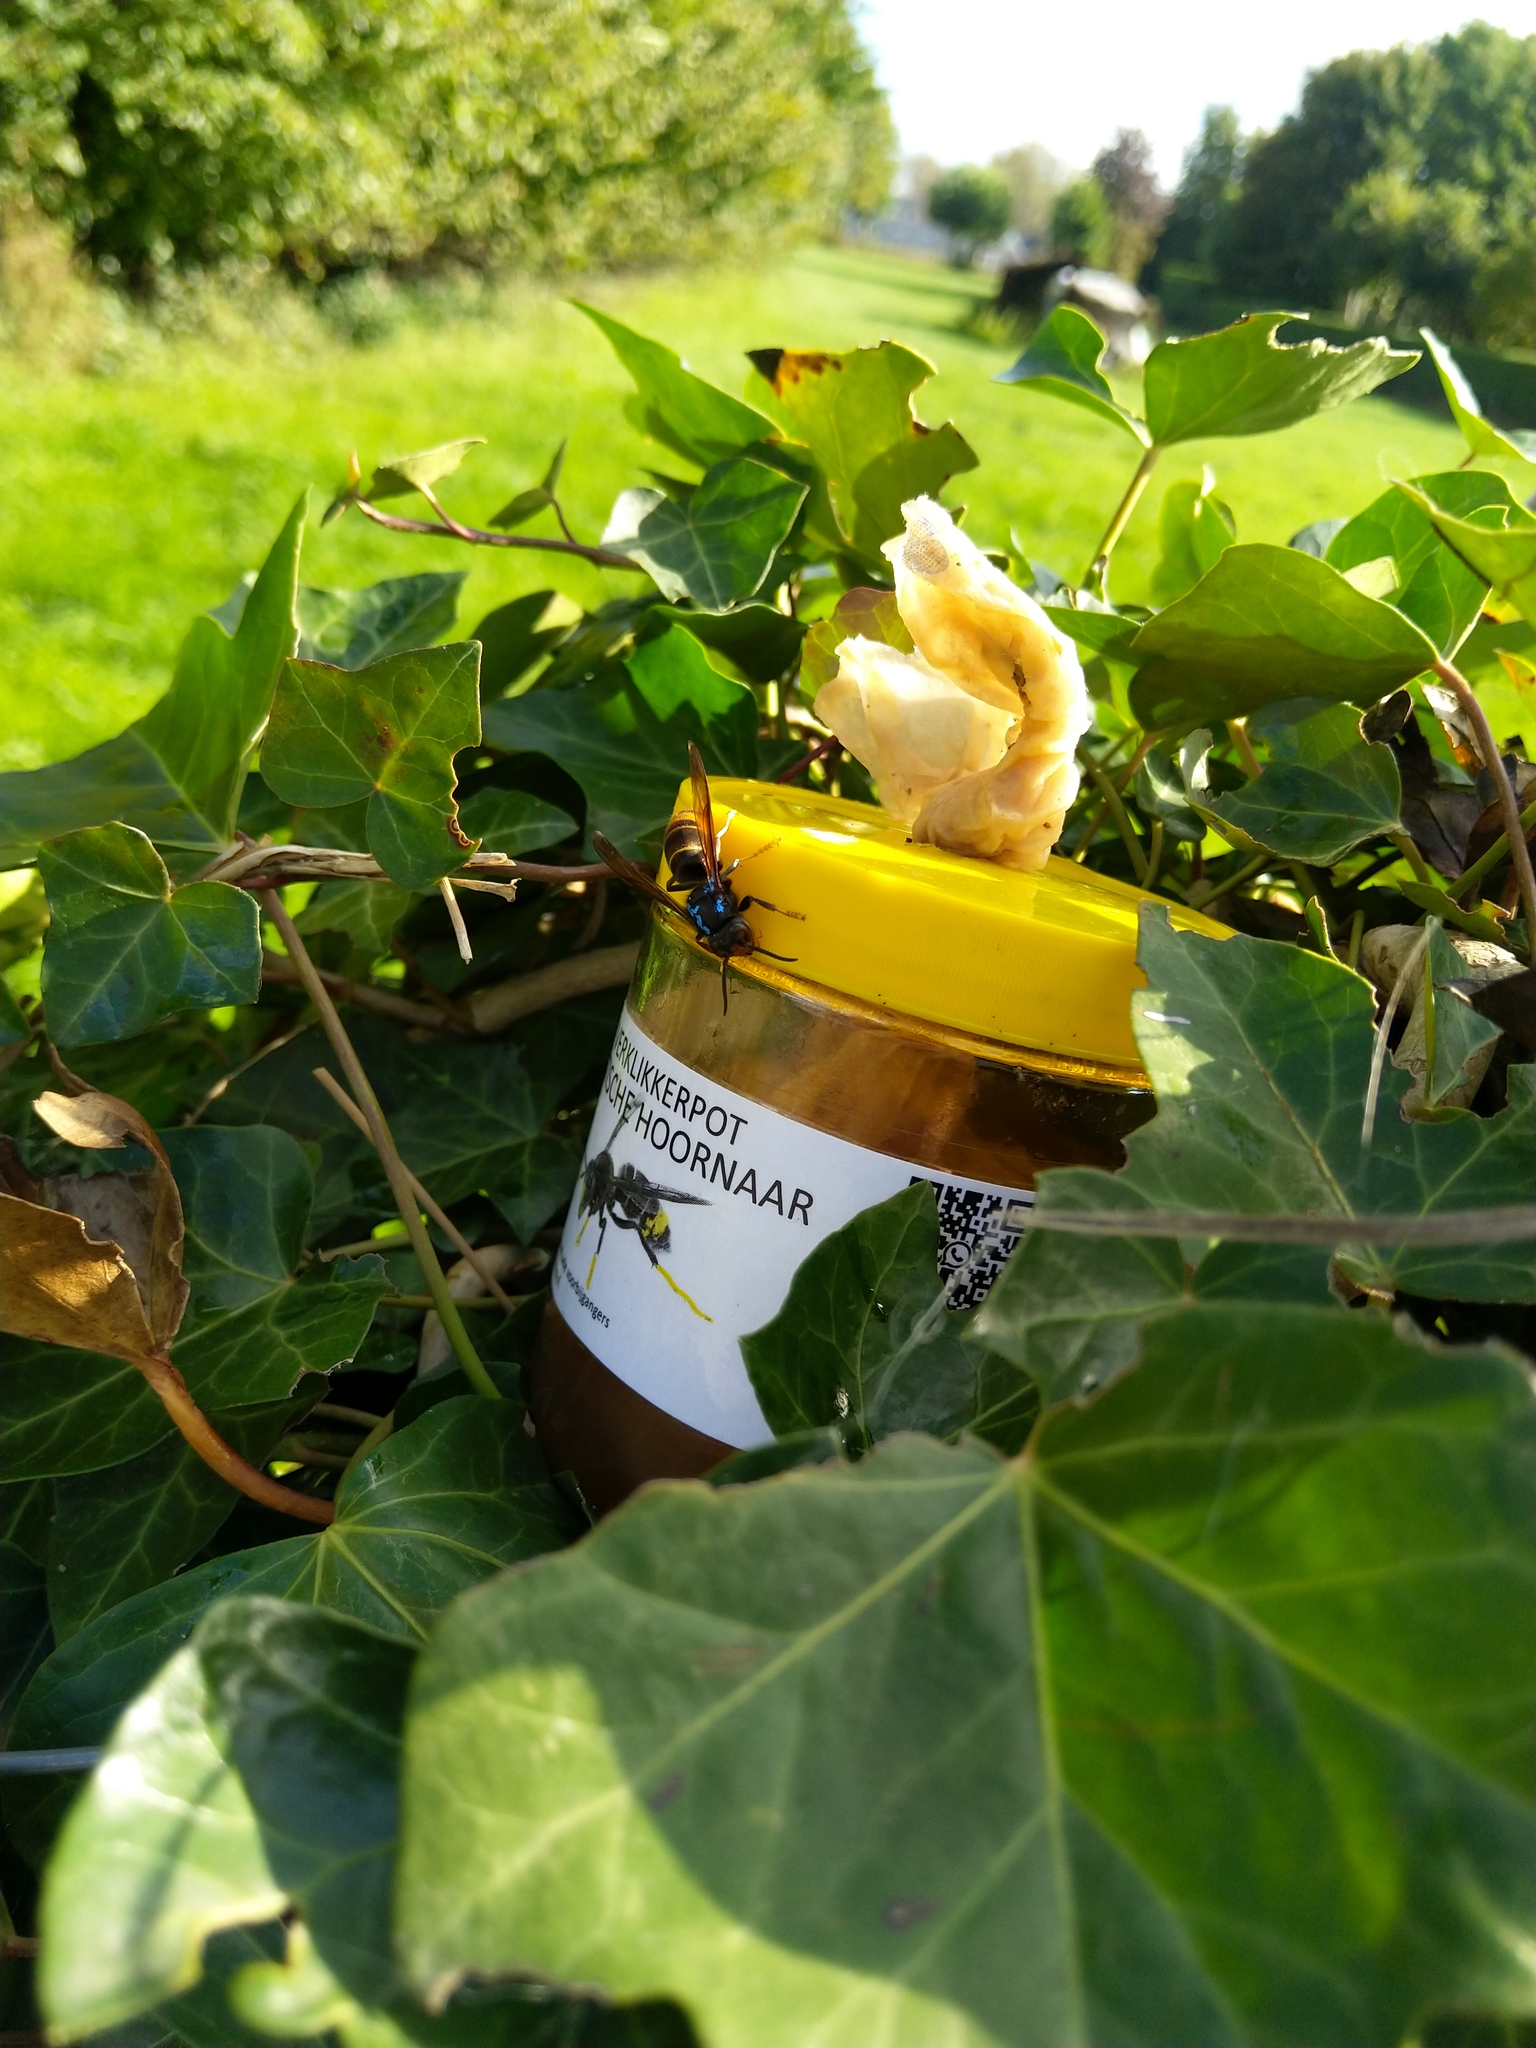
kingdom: Animalia
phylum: Arthropoda
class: Insecta
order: Hymenoptera
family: Vespidae
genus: Vespa
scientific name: Vespa velutina
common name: Asian hornet
